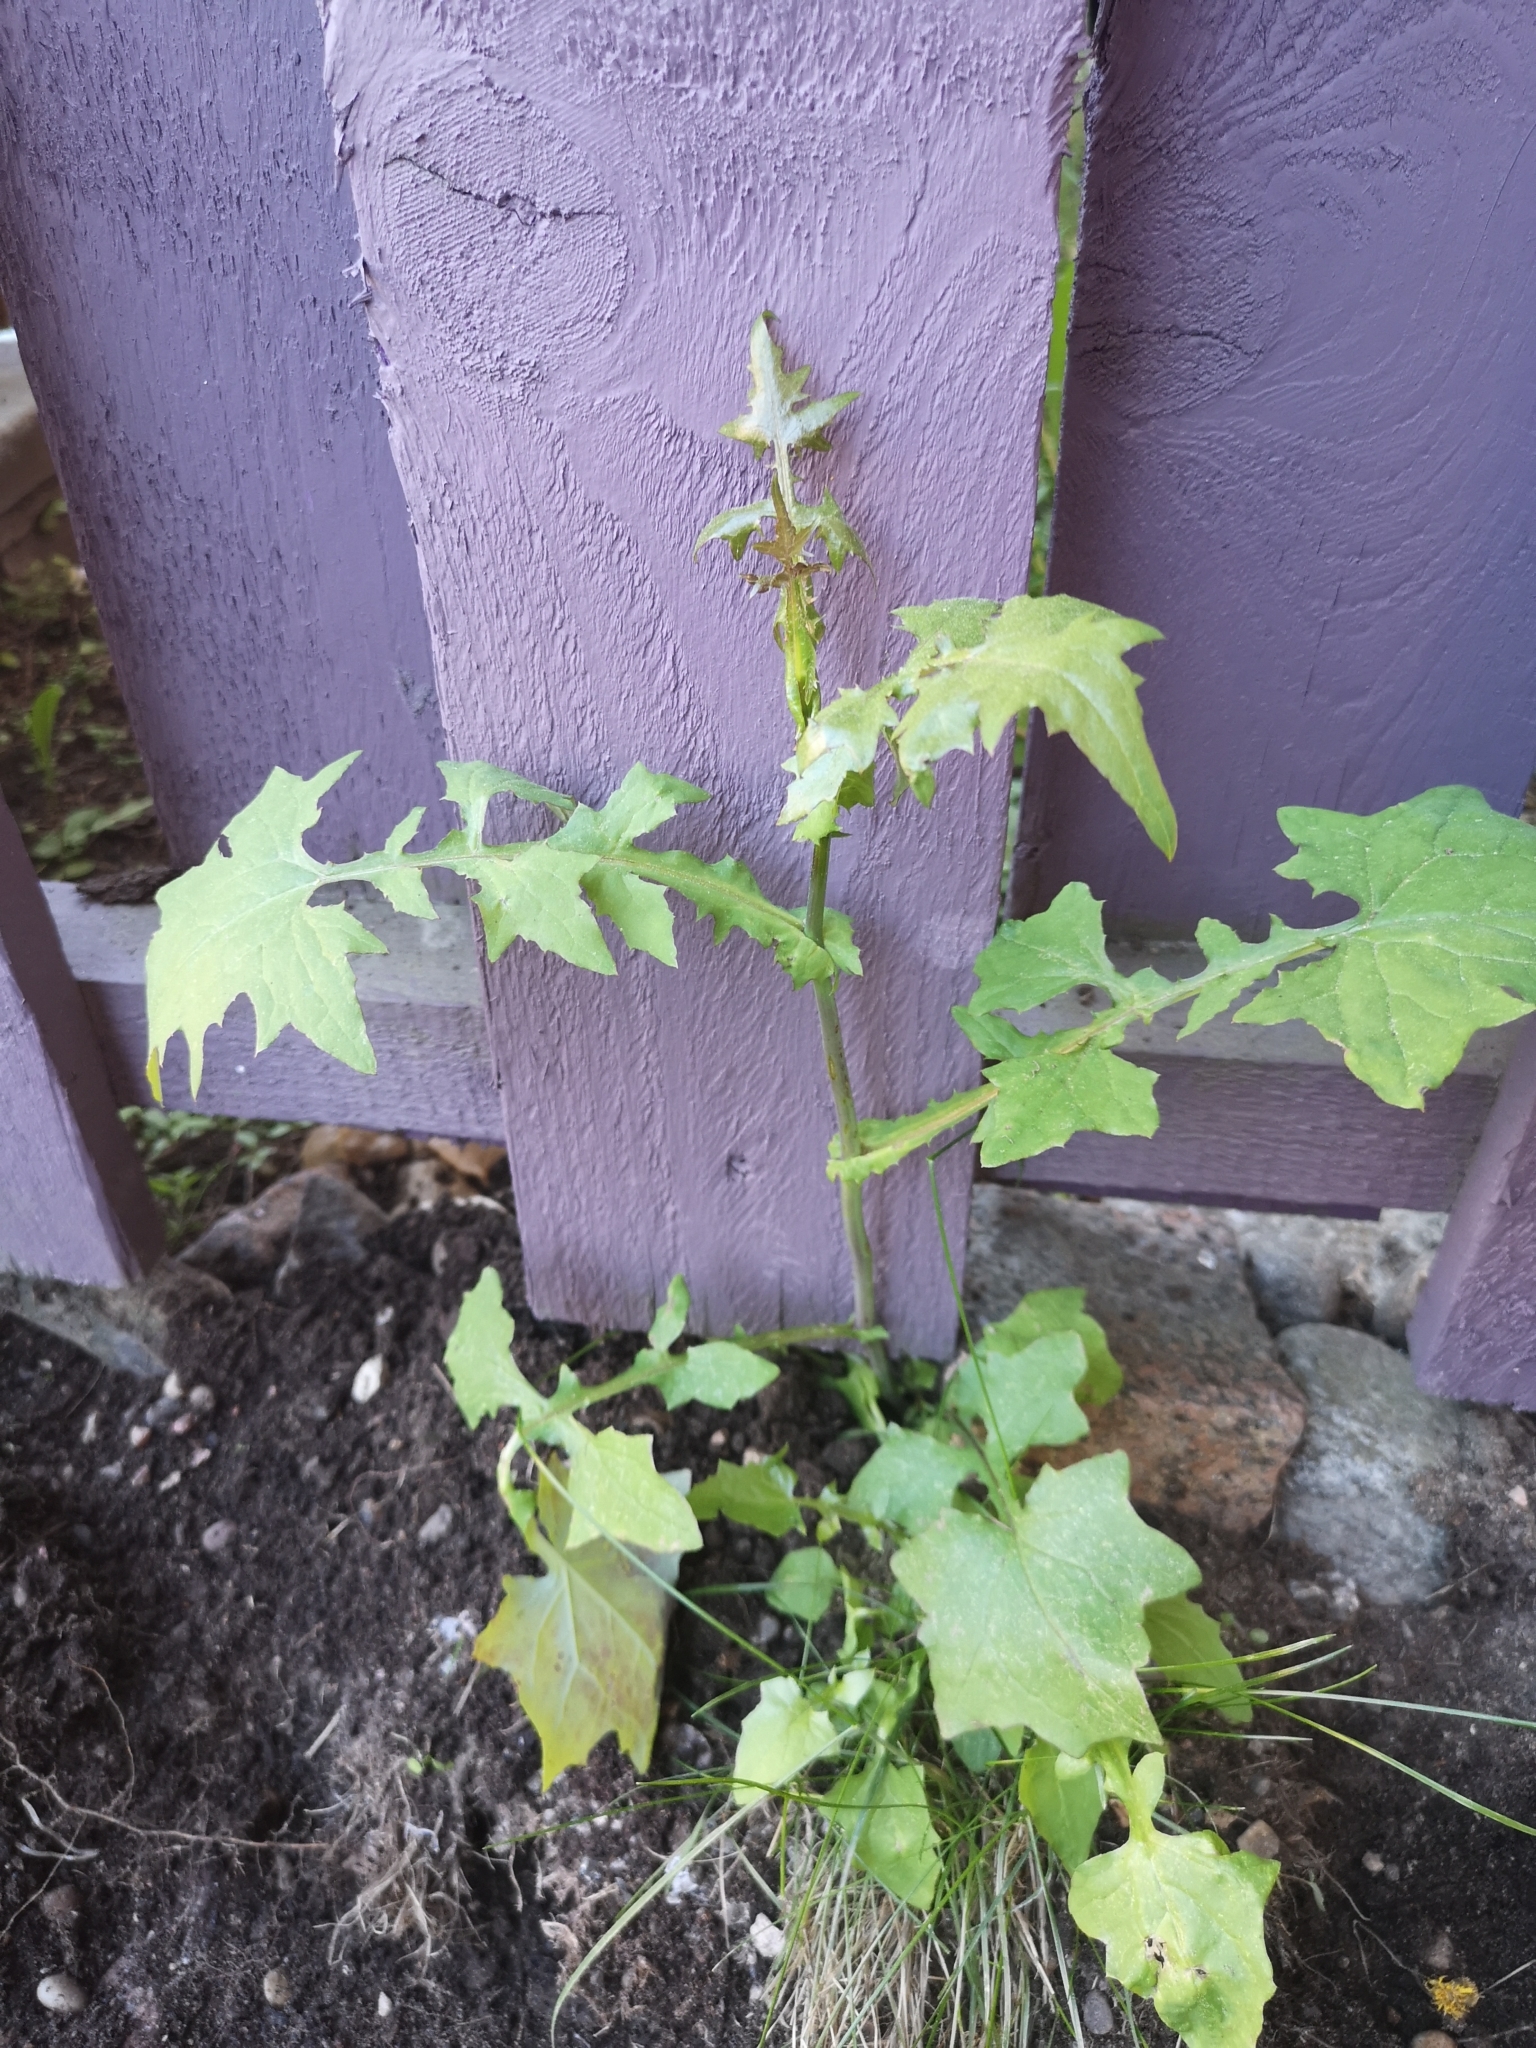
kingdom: Plantae
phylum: Tracheophyta
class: Magnoliopsida
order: Asterales
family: Asteraceae
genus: Mycelis
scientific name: Mycelis muralis
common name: Wall lettuce
